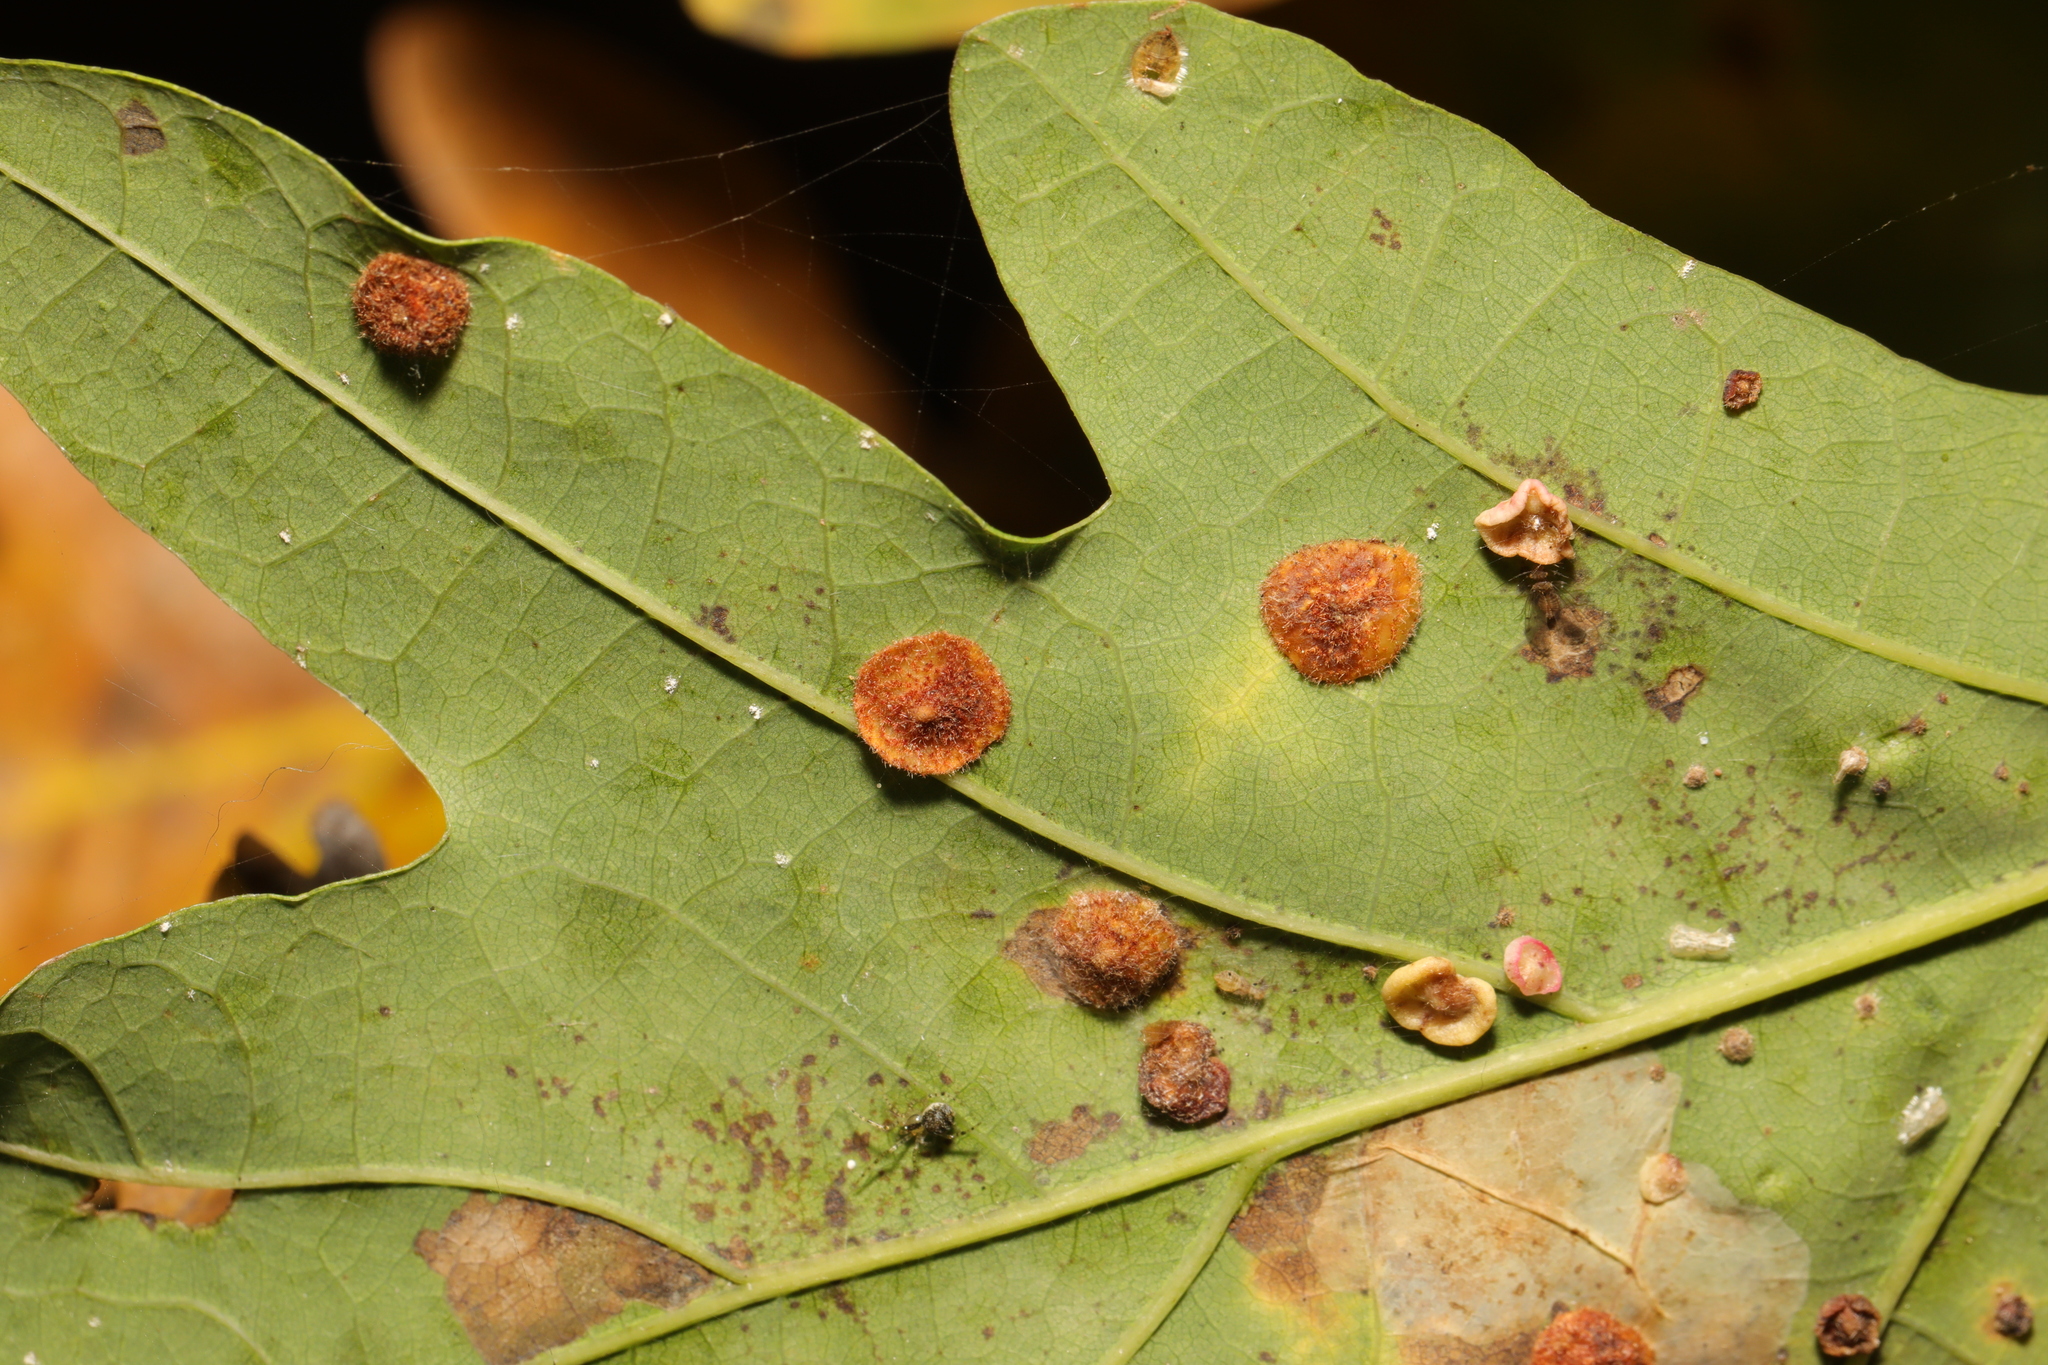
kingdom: Animalia
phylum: Arthropoda
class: Insecta
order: Hymenoptera
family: Cynipidae
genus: Neuroterus
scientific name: Neuroterus quercusbaccarum
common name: Common spangle gall
